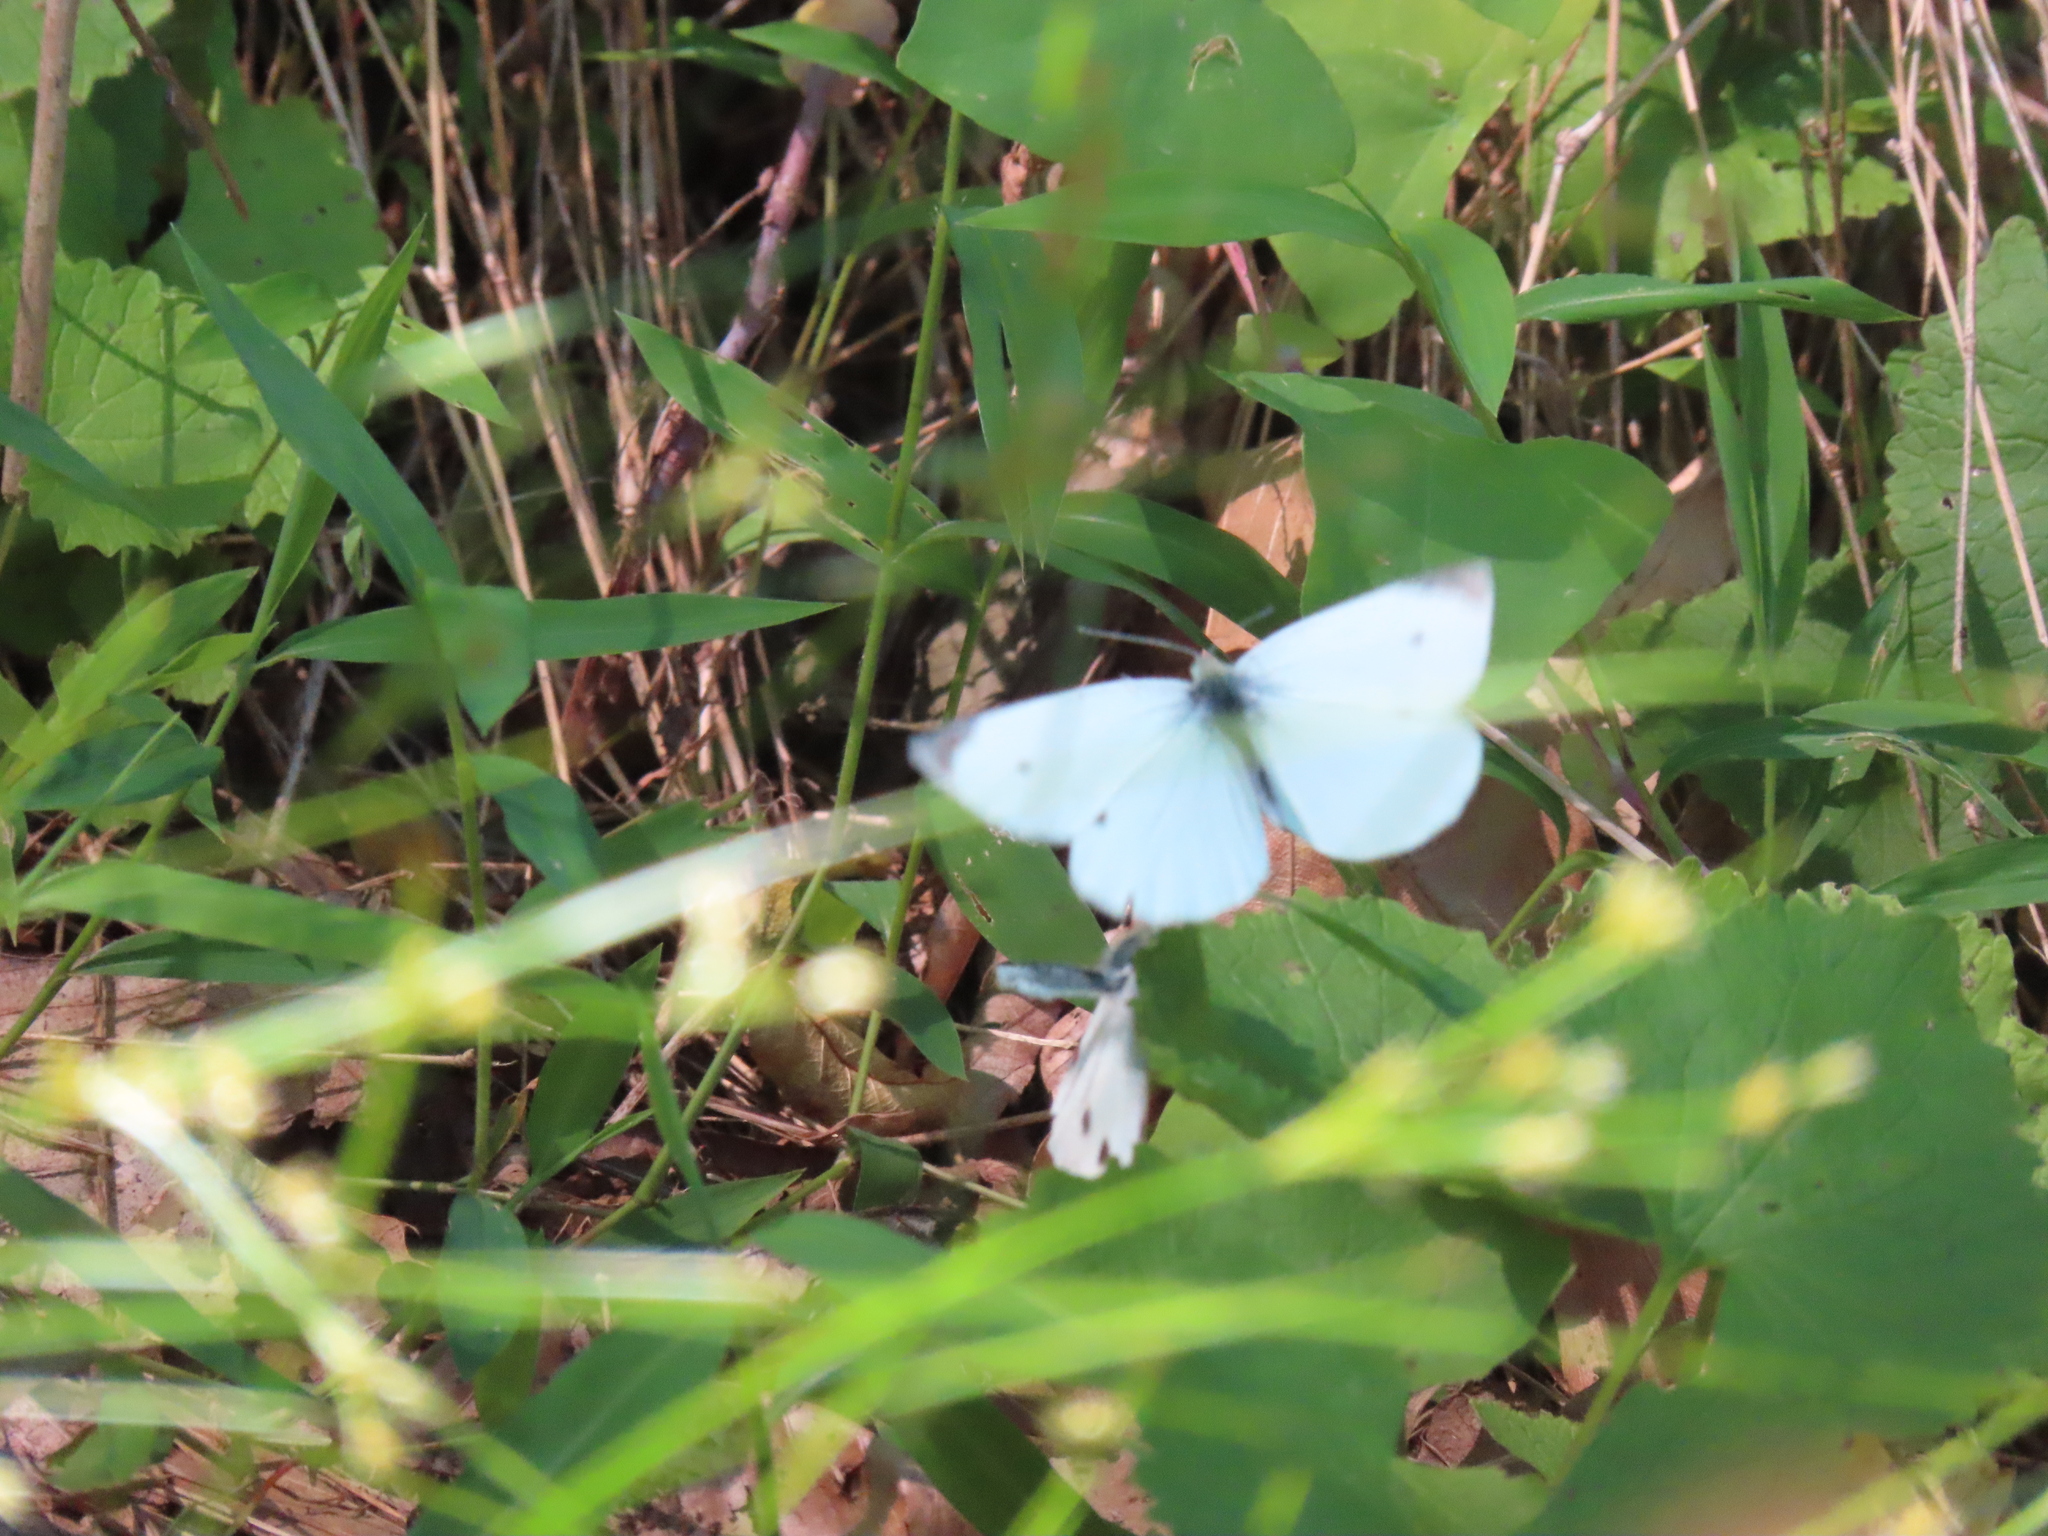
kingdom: Animalia
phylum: Arthropoda
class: Insecta
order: Lepidoptera
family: Pieridae
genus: Pieris
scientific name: Pieris rapae
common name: Small white
